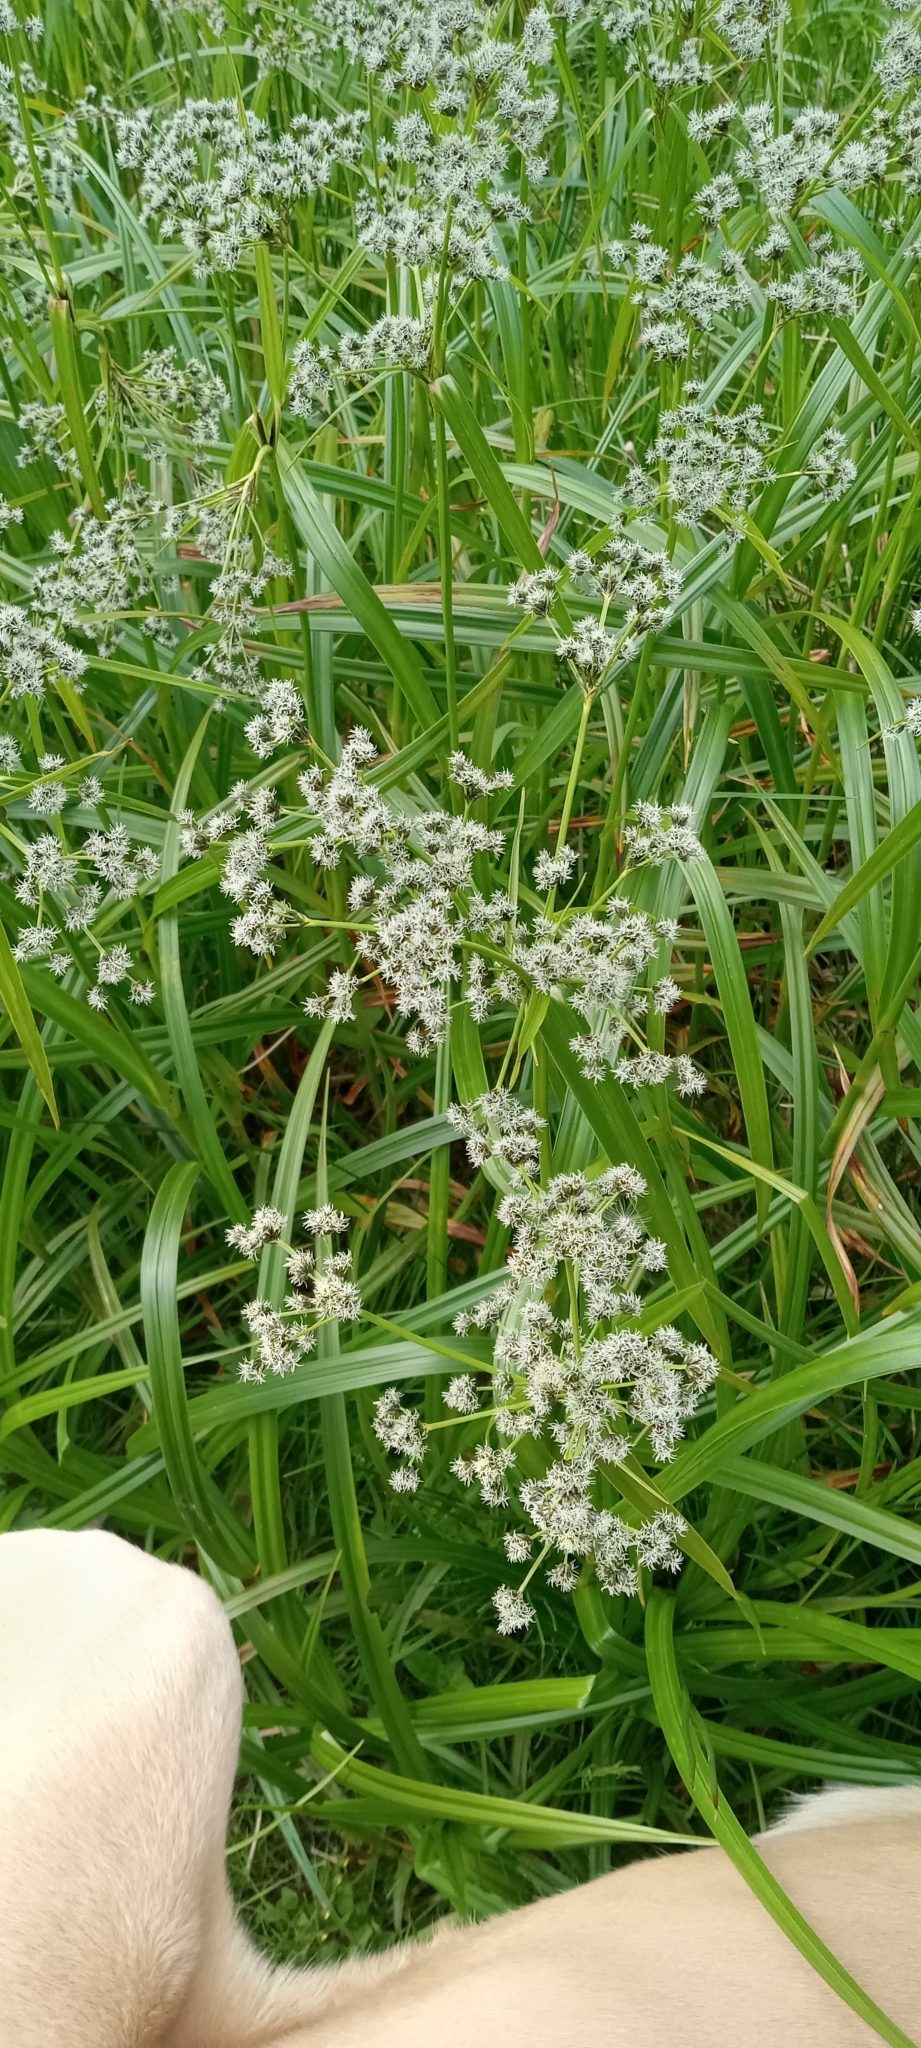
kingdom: Plantae
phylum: Tracheophyta
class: Liliopsida
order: Poales
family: Cyperaceae
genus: Scirpus
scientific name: Scirpus microcarpus
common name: Panicled bulrush
